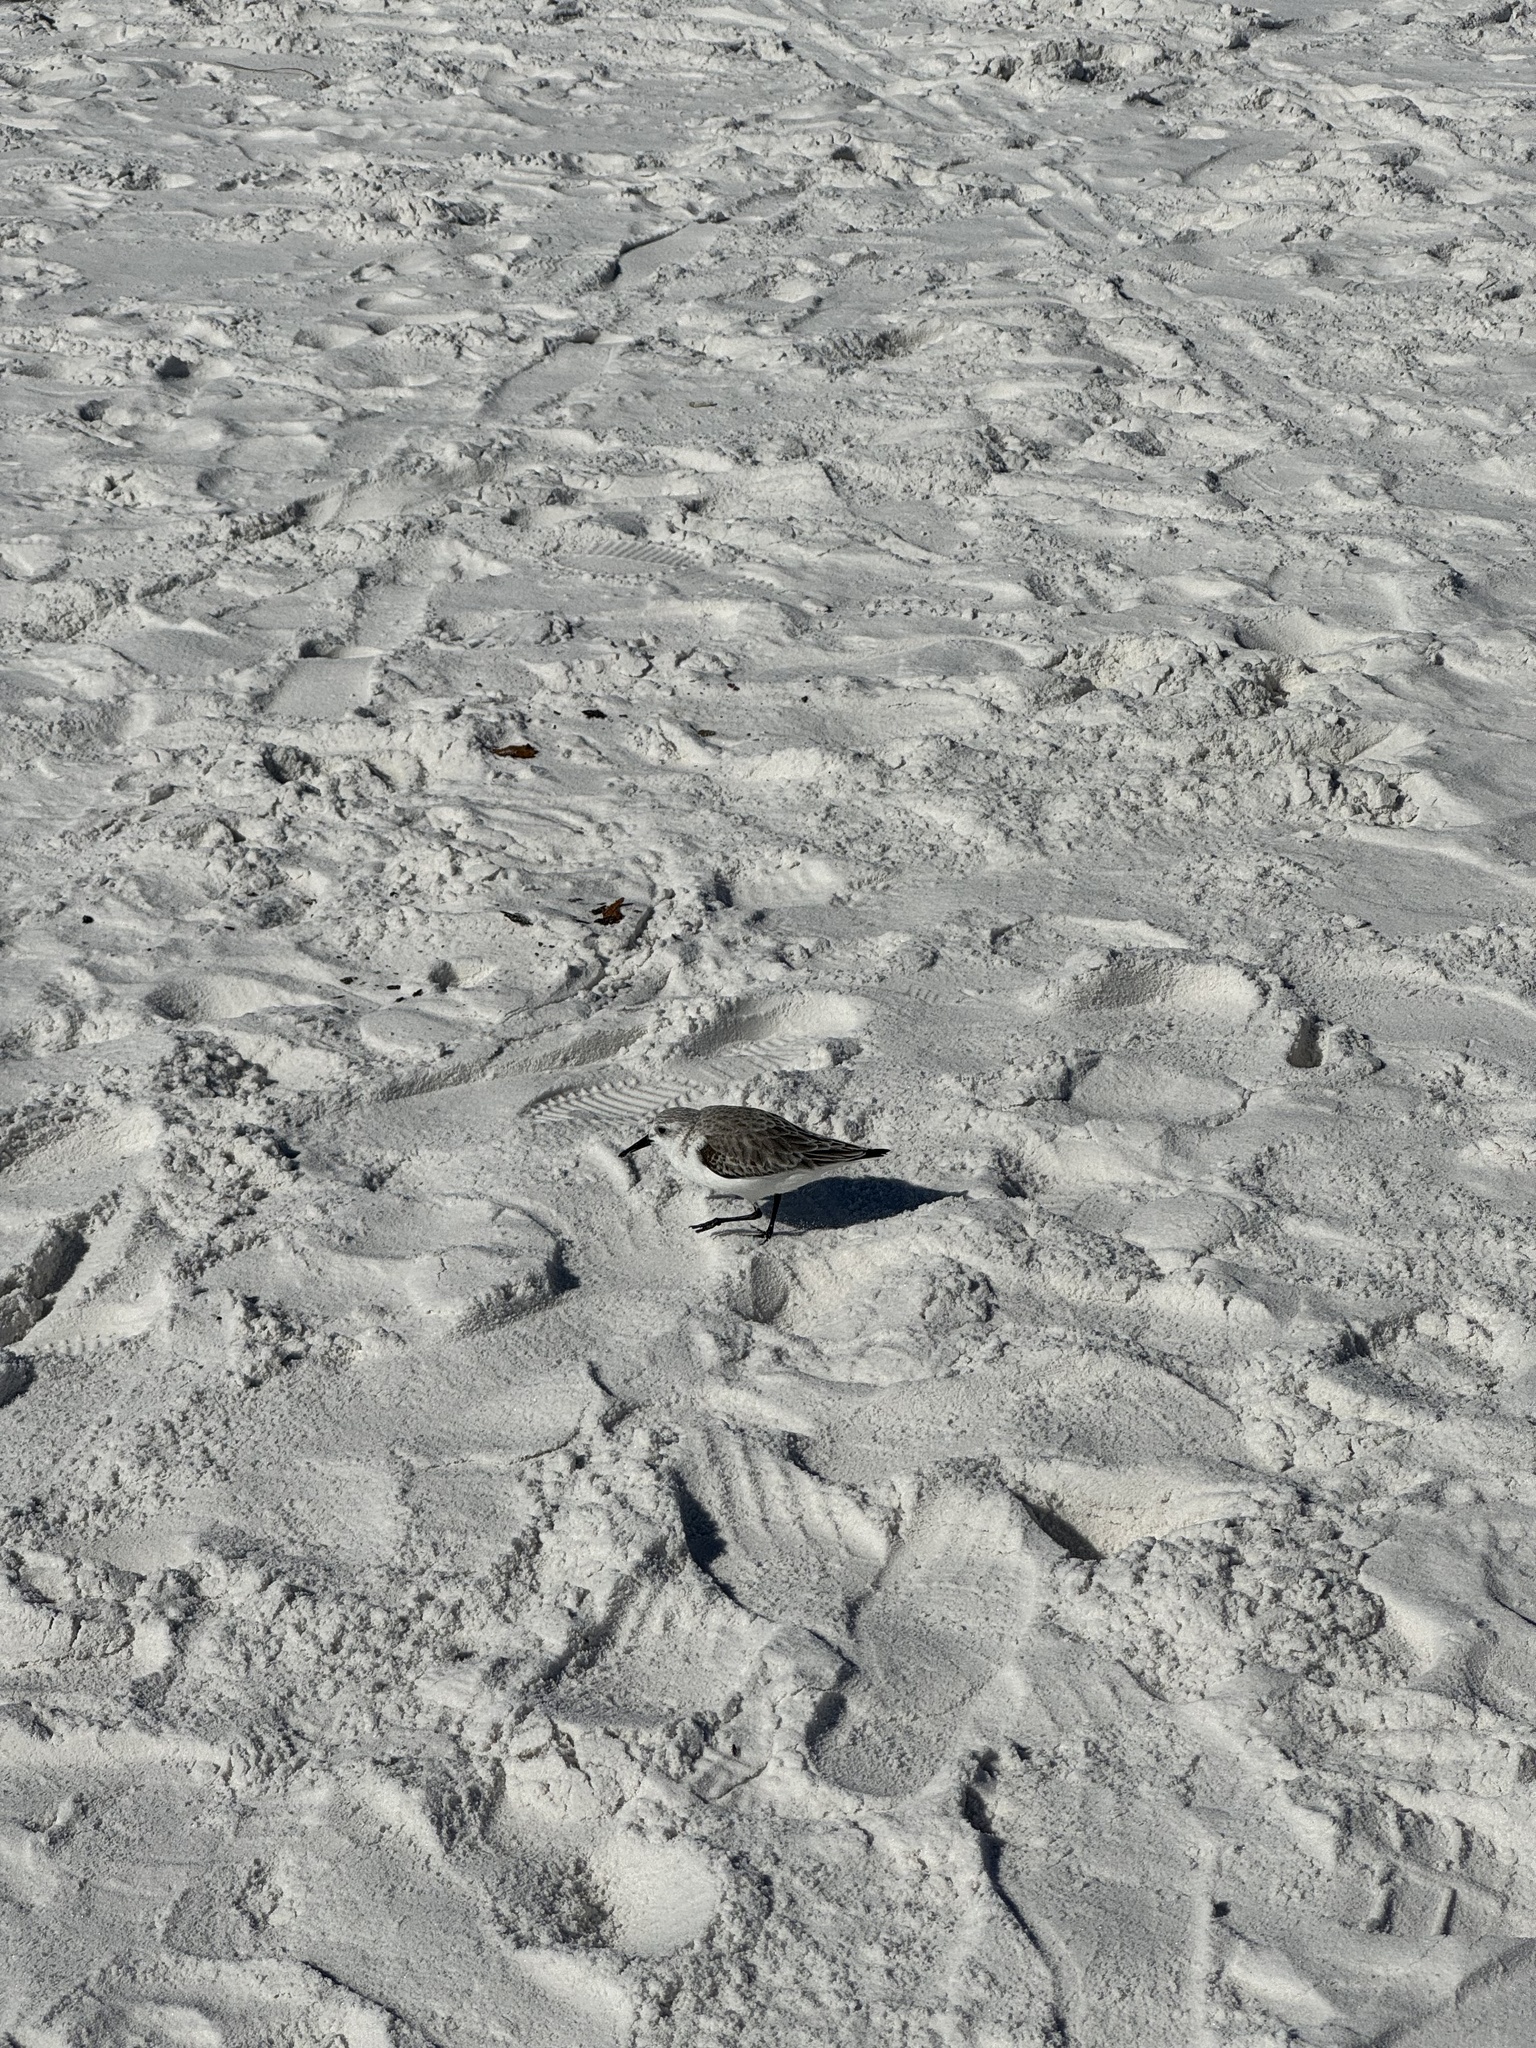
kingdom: Animalia
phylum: Chordata
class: Aves
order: Charadriiformes
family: Scolopacidae
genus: Calidris
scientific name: Calidris alba
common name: Sanderling
